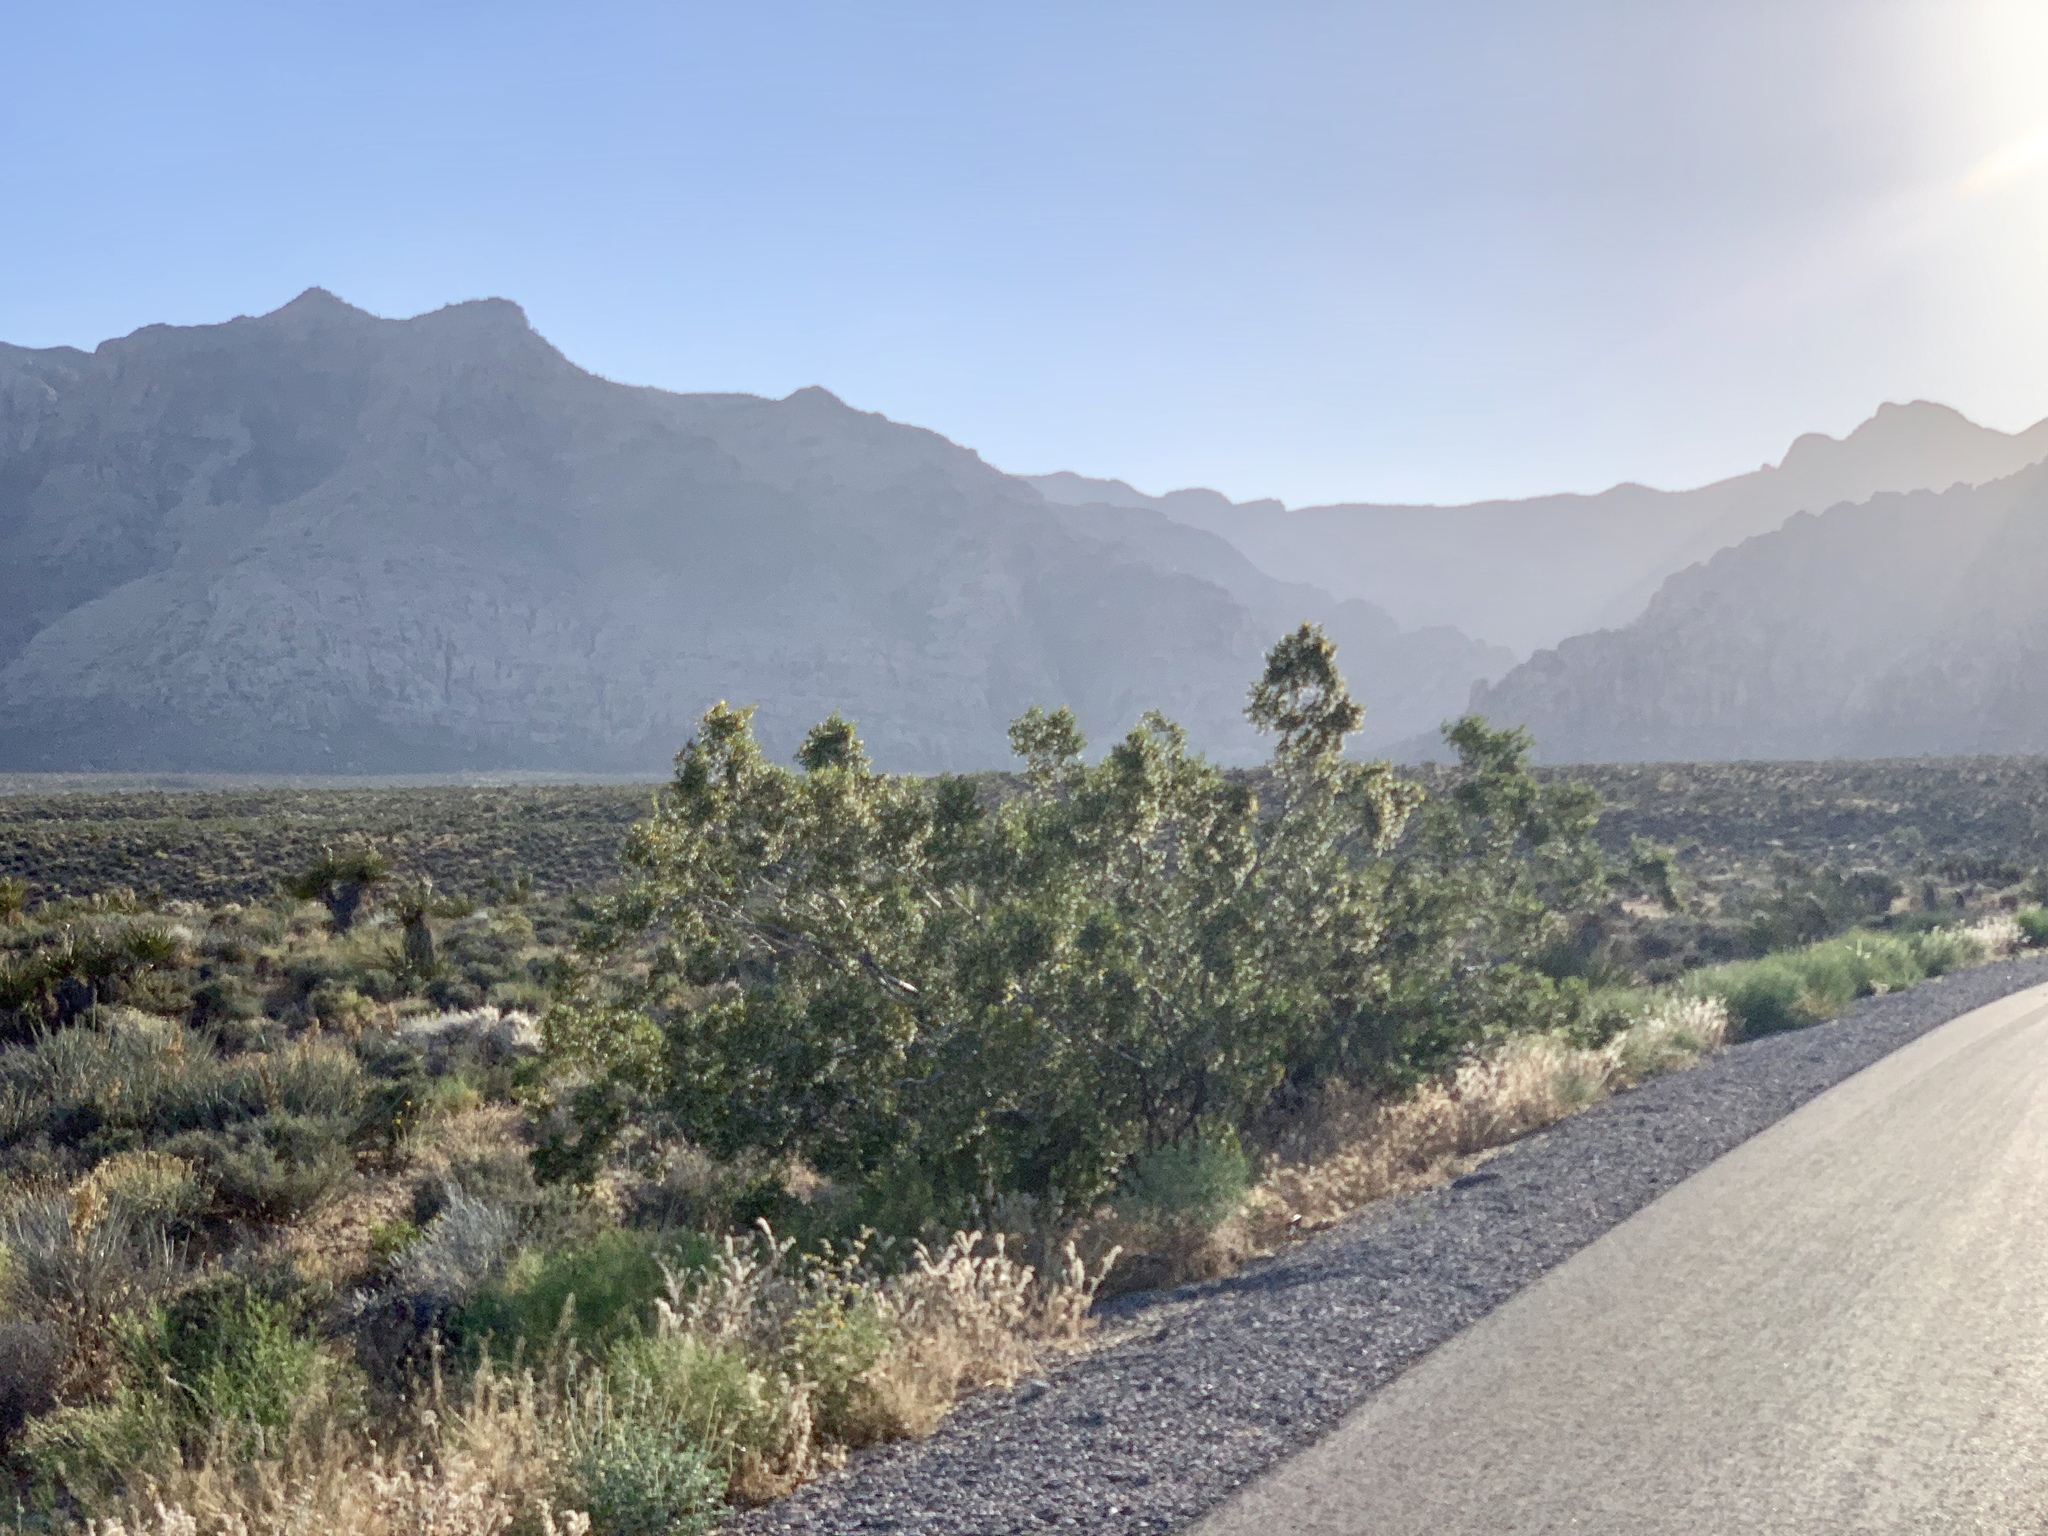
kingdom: Plantae
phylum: Tracheophyta
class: Magnoliopsida
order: Zygophyllales
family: Zygophyllaceae
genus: Larrea
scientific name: Larrea tridentata
